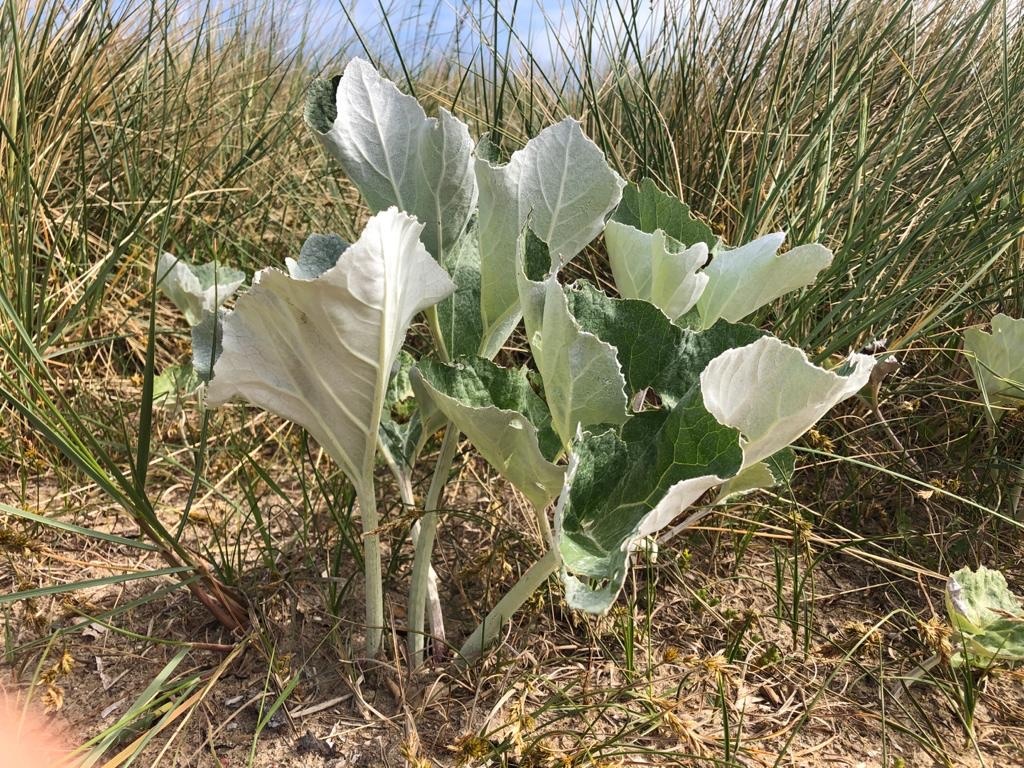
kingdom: Plantae
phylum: Tracheophyta
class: Magnoliopsida
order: Brassicales
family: Brassicaceae
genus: Crambe
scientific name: Crambe maritima
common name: Sea-kale
